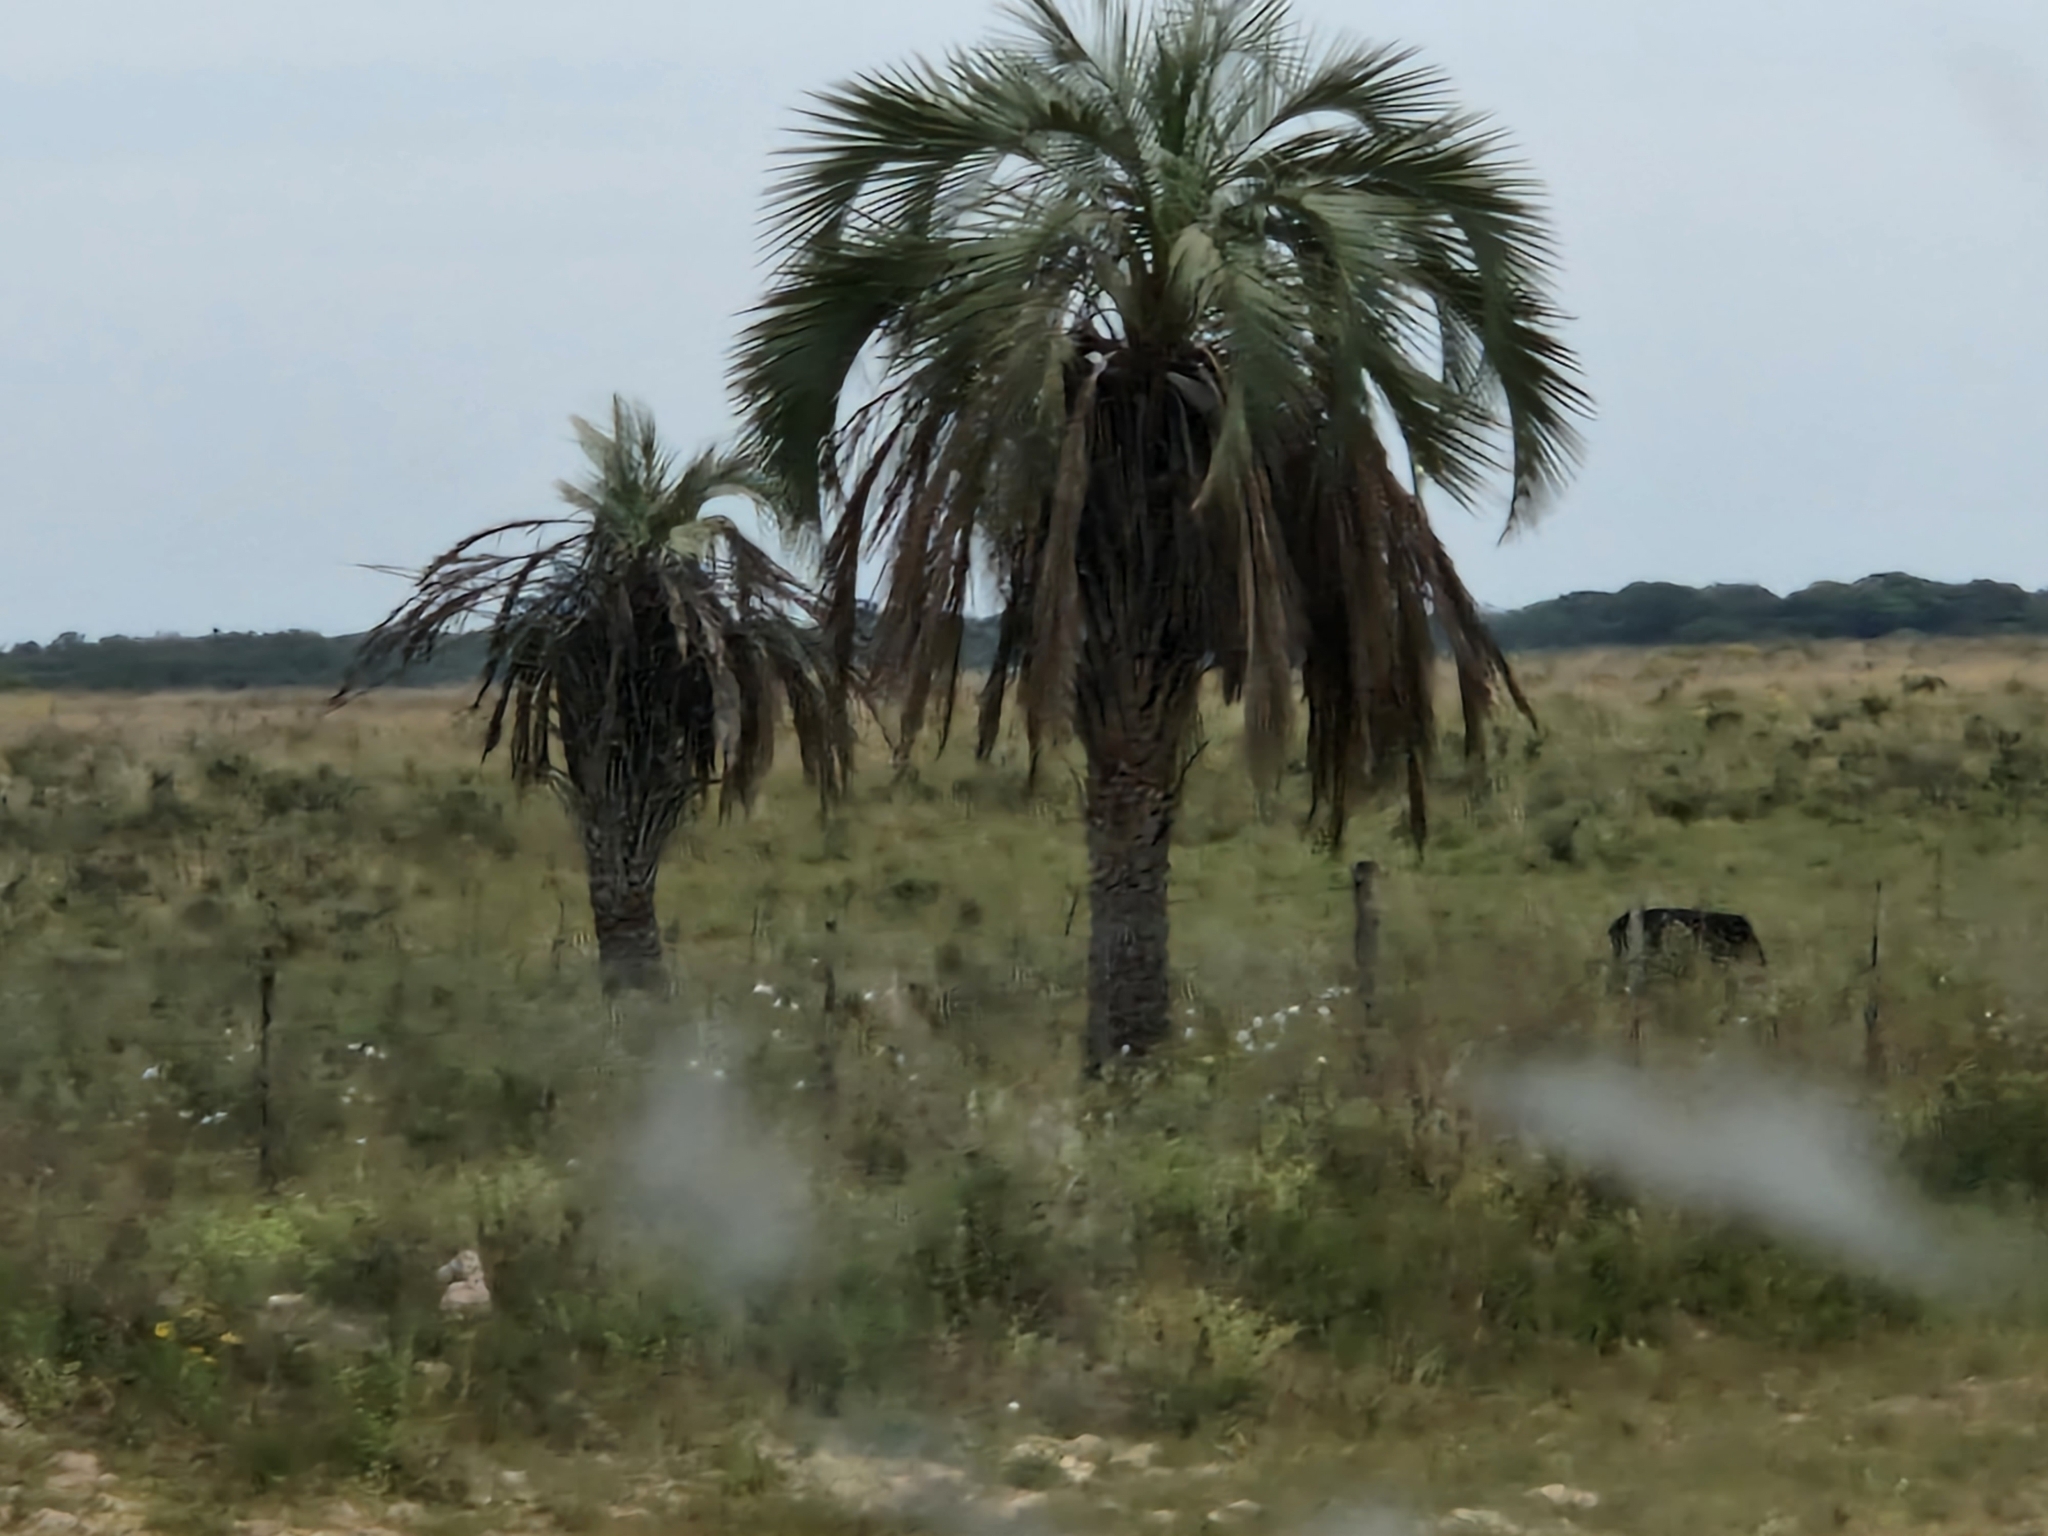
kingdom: Plantae
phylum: Tracheophyta
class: Liliopsida
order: Arecales
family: Arecaceae
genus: Butia
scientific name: Butia yatay
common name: Yatay palm
